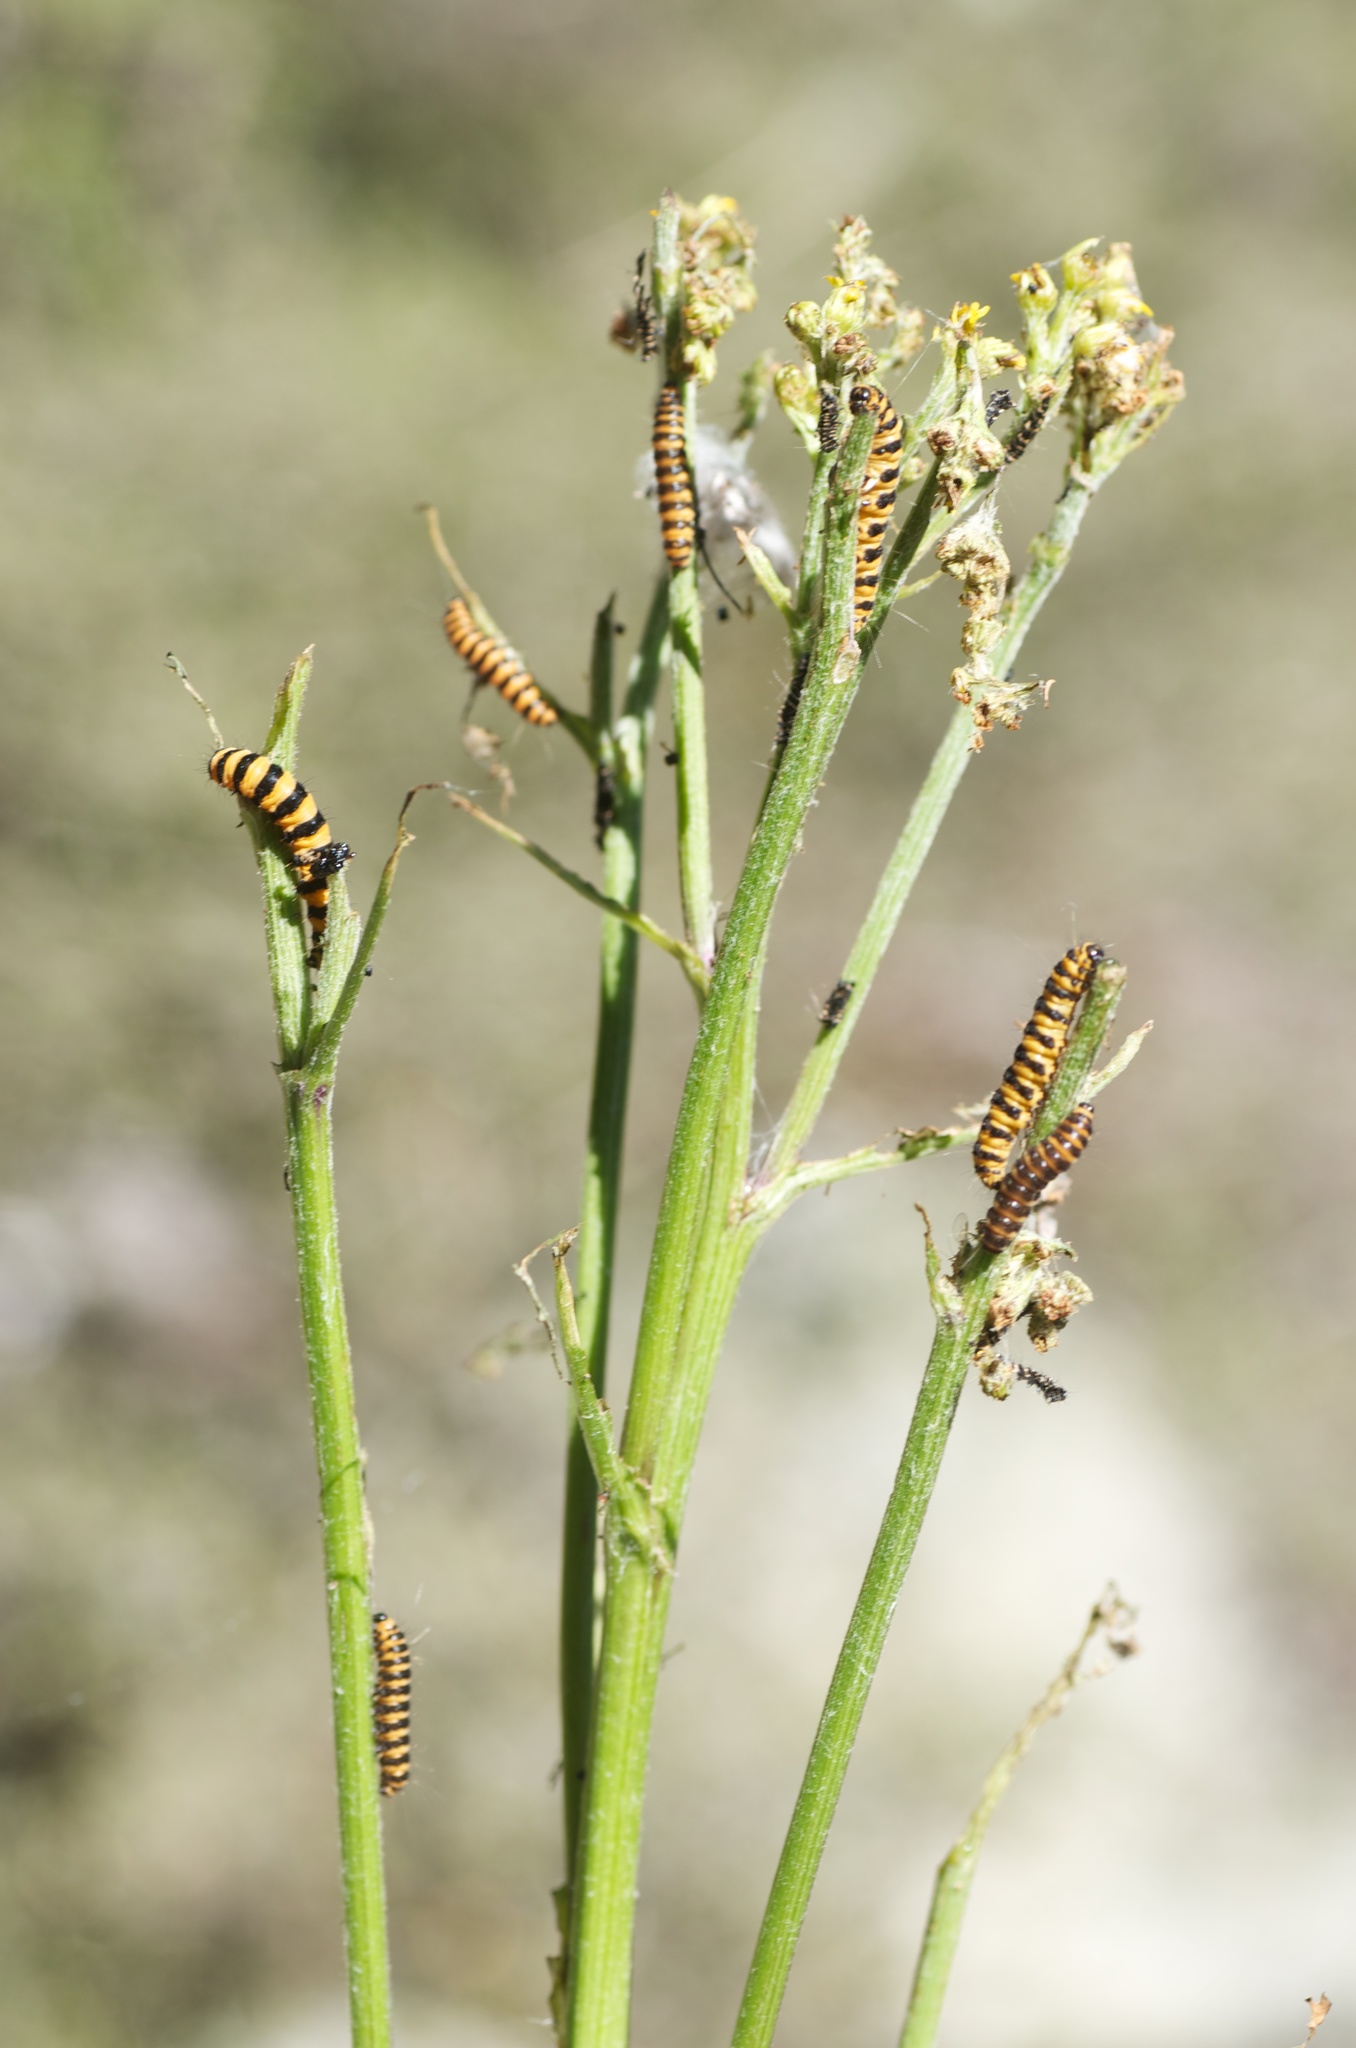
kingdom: Animalia
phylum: Arthropoda
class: Insecta
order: Lepidoptera
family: Erebidae
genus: Tyria
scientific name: Tyria jacobaeae
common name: Cinnabar
